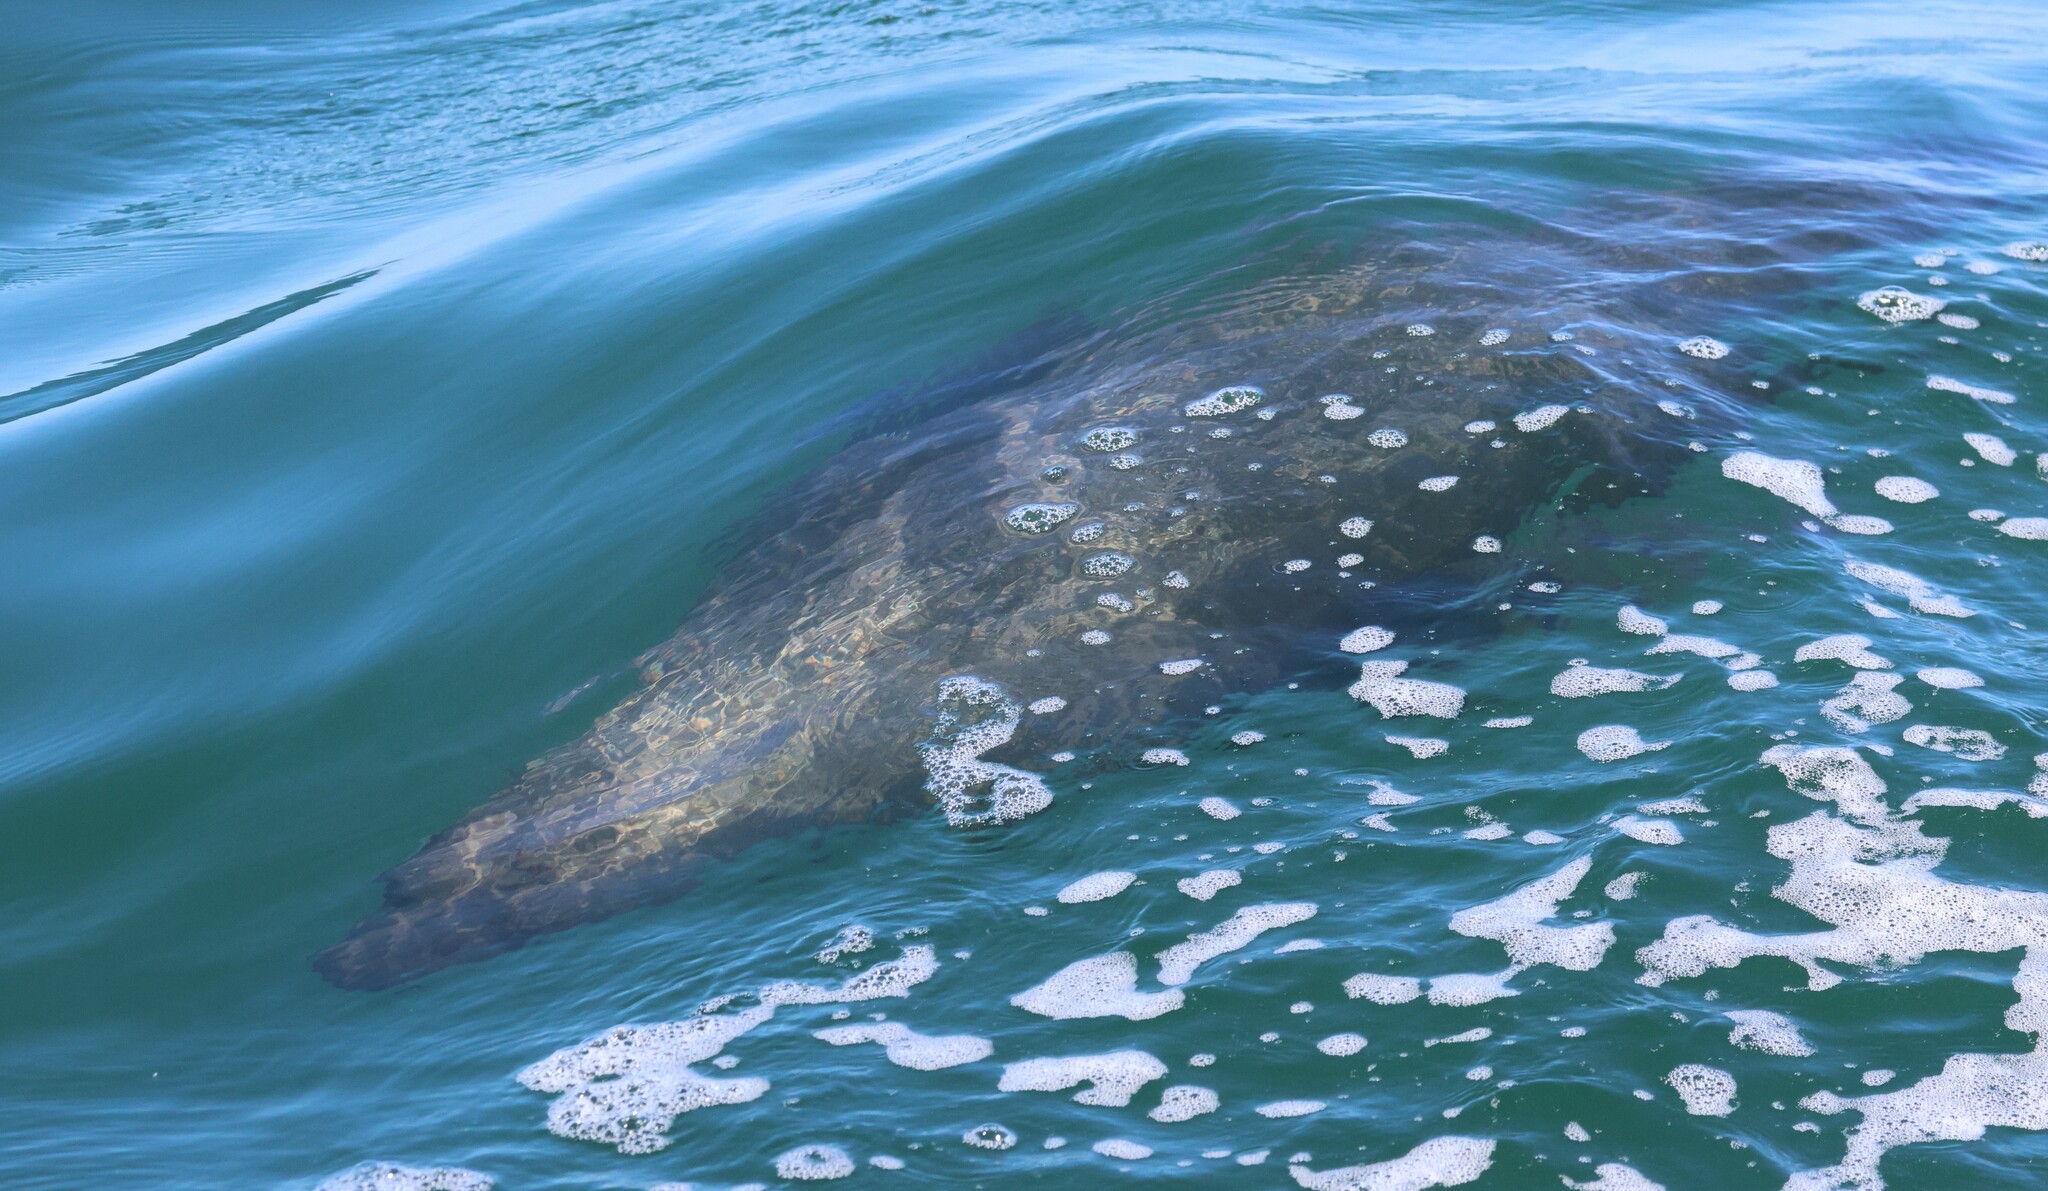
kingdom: Animalia
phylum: Chordata
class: Mammalia
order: Carnivora
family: Otariidae
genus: Arctocephalus
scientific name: Arctocephalus pusillus
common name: Brown fur seal
